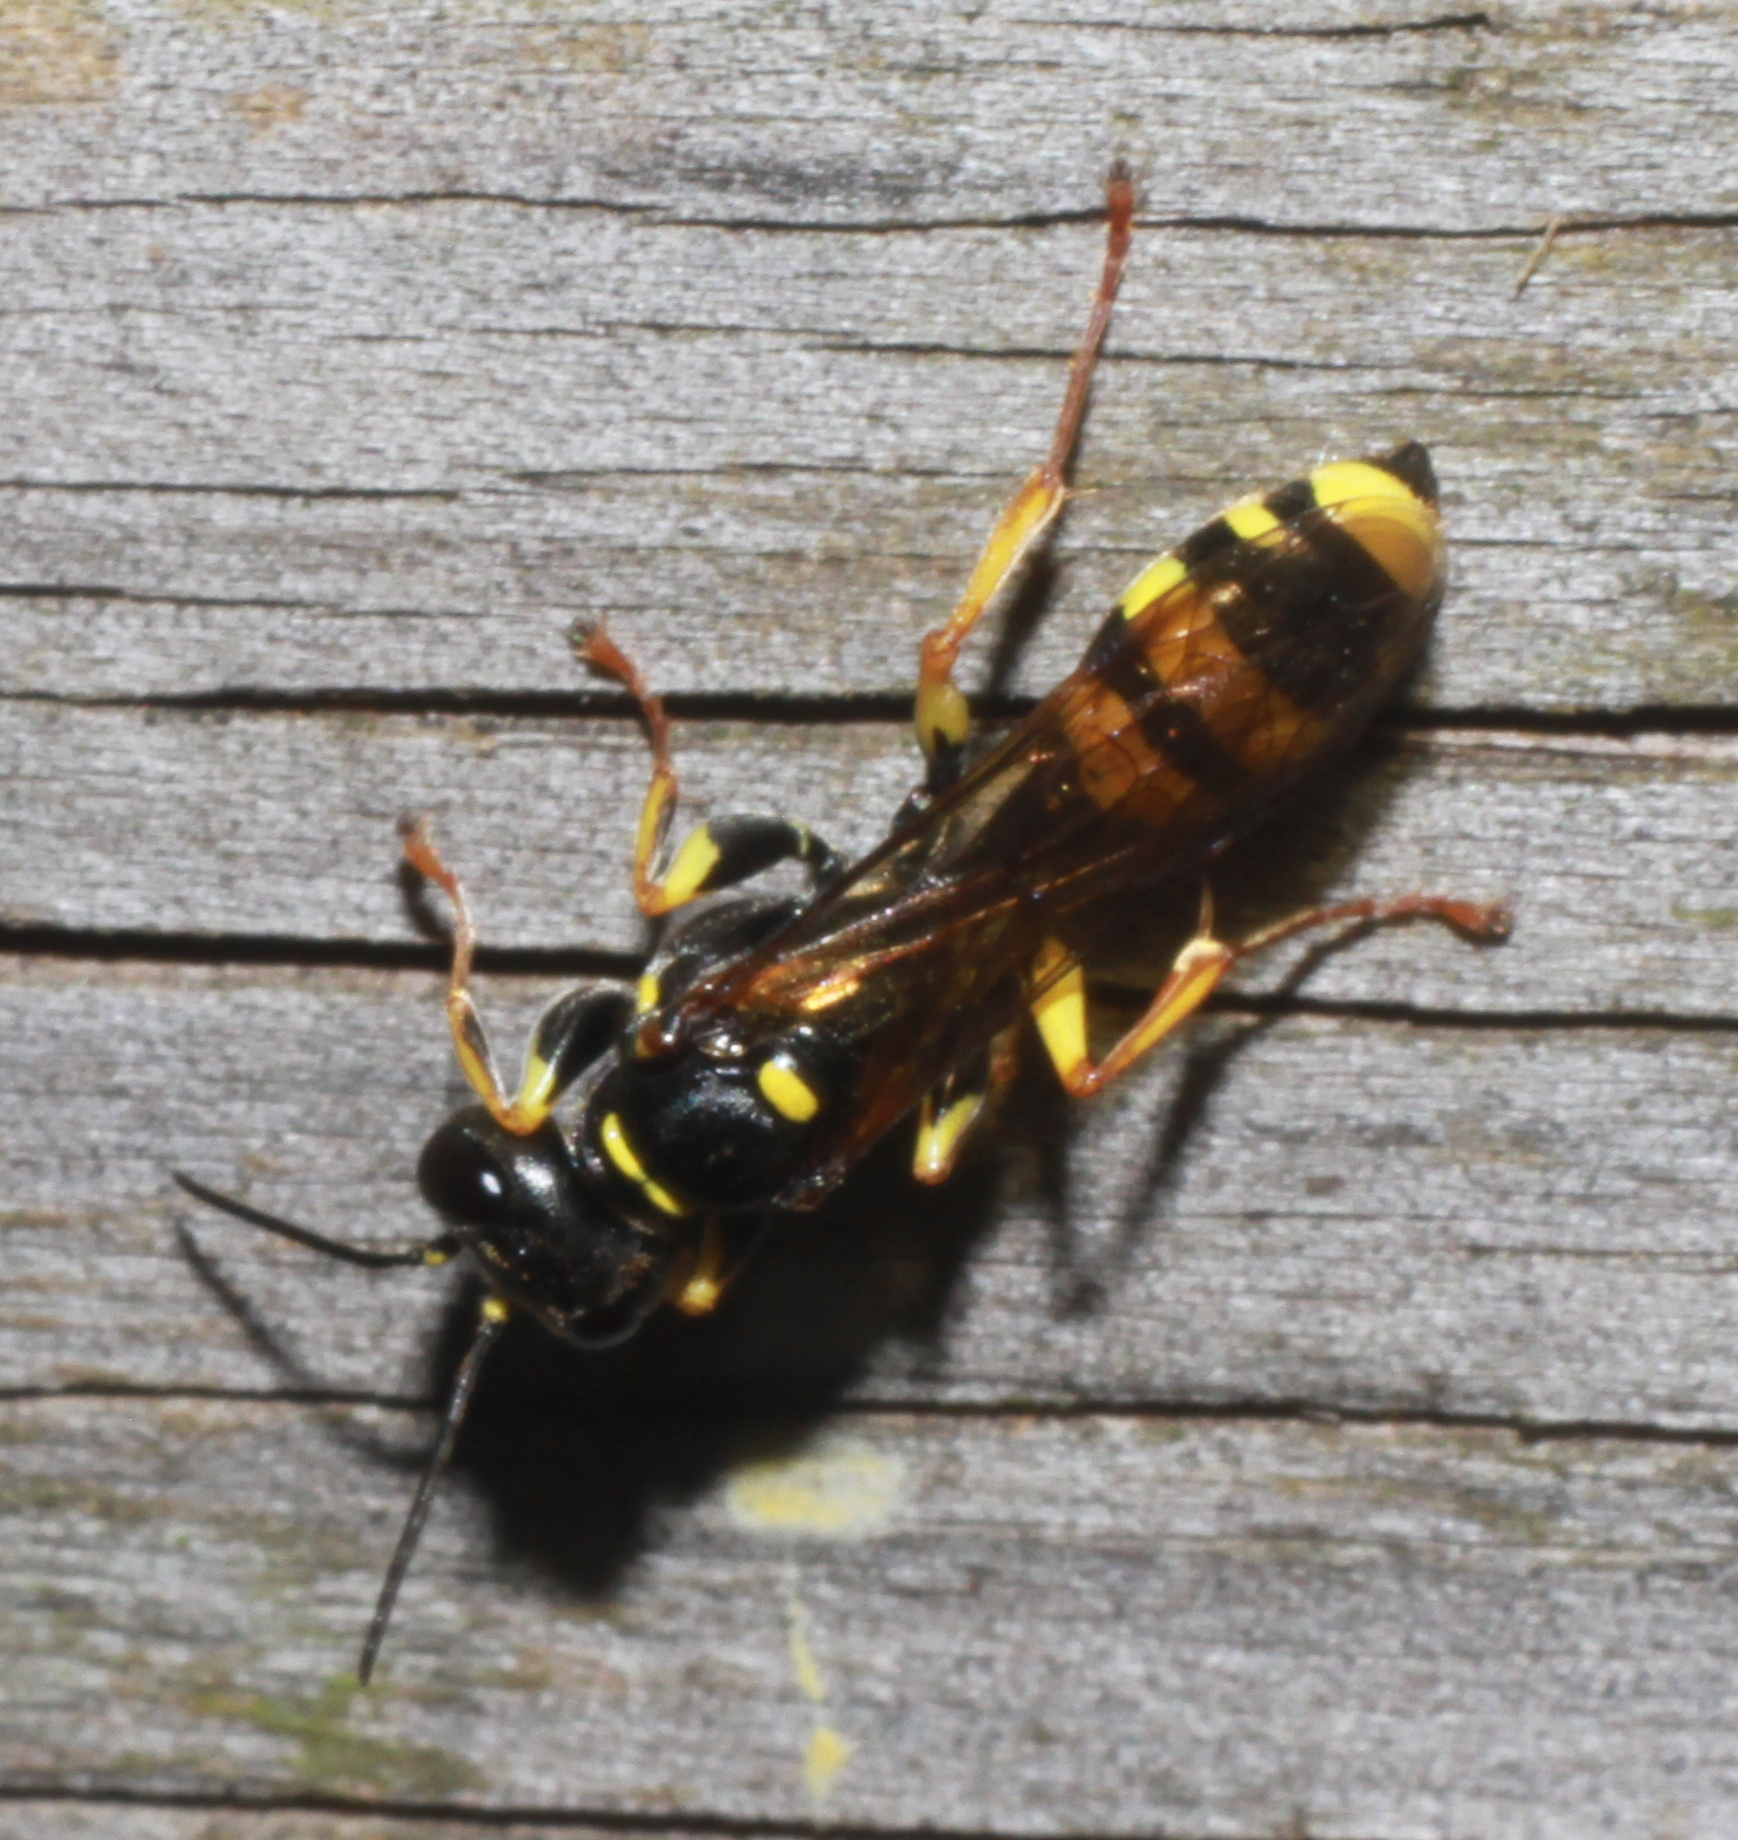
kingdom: Animalia
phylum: Arthropoda
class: Insecta
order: Hymenoptera
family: Crabronidae
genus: Mellinus
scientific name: Mellinus arvensis
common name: Field digger wasp
